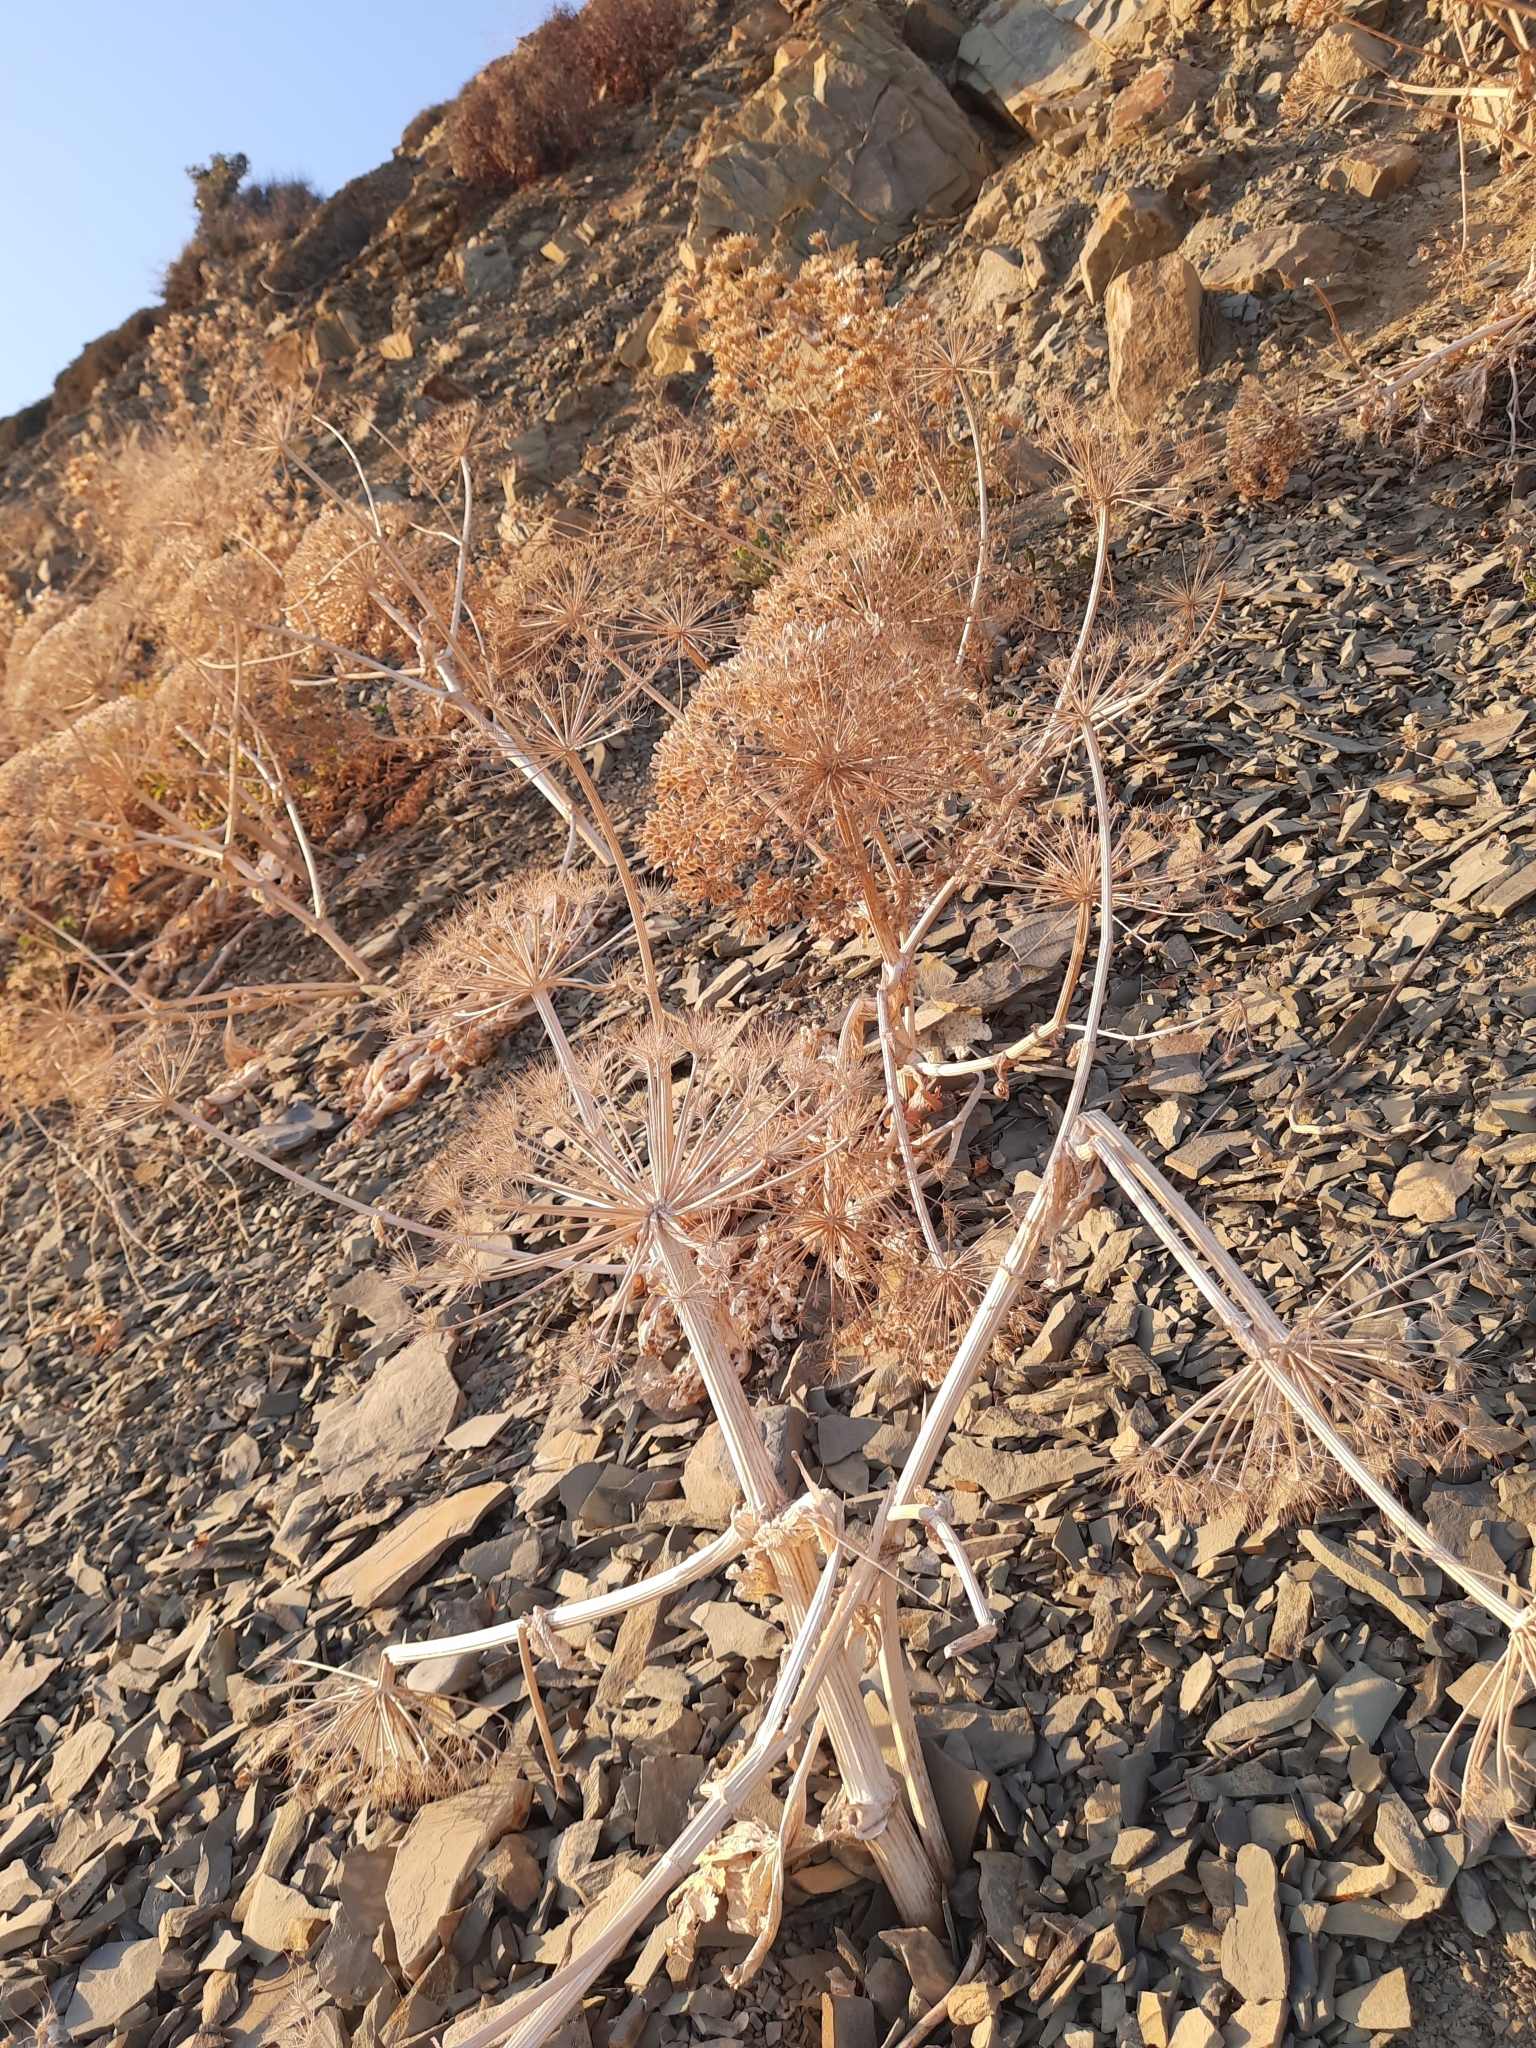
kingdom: Plantae
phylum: Tracheophyta
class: Magnoliopsida
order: Apiales
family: Apiaceae
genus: Heracleum
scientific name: Heracleum stevenii
